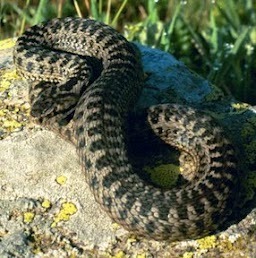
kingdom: Animalia
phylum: Chordata
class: Squamata
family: Viperidae
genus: Vipera
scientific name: Vipera darevskii
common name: Darevsky's viper
